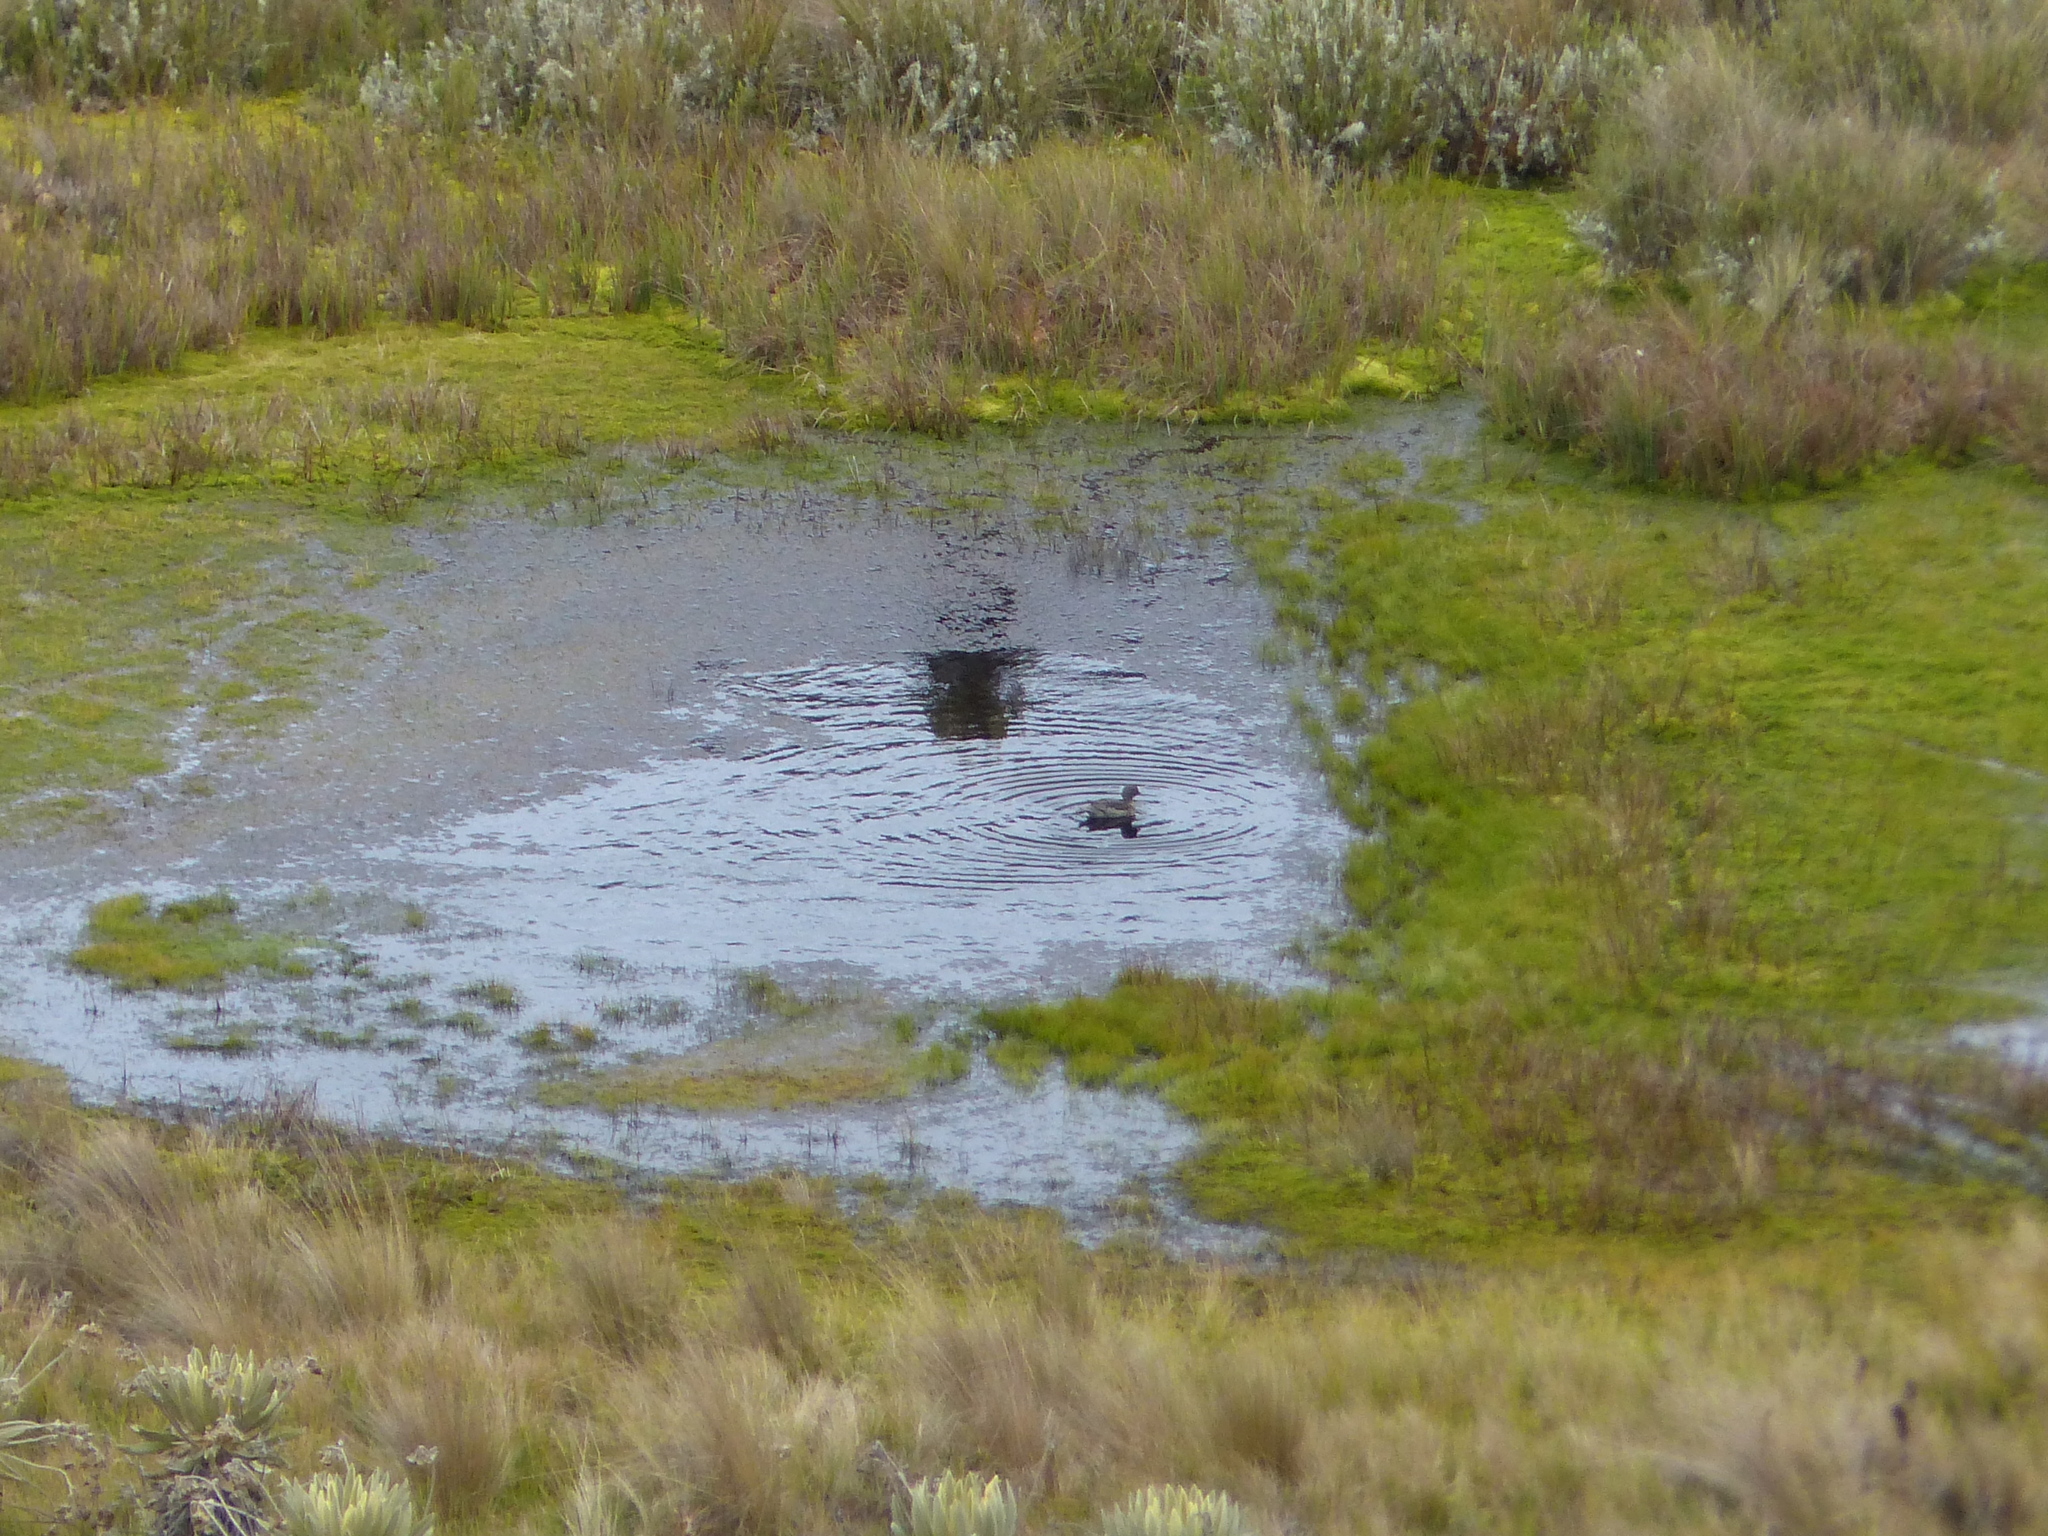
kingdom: Animalia
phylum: Chordata
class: Aves
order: Anseriformes
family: Anatidae
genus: Anas
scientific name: Anas andium
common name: Andean teal
